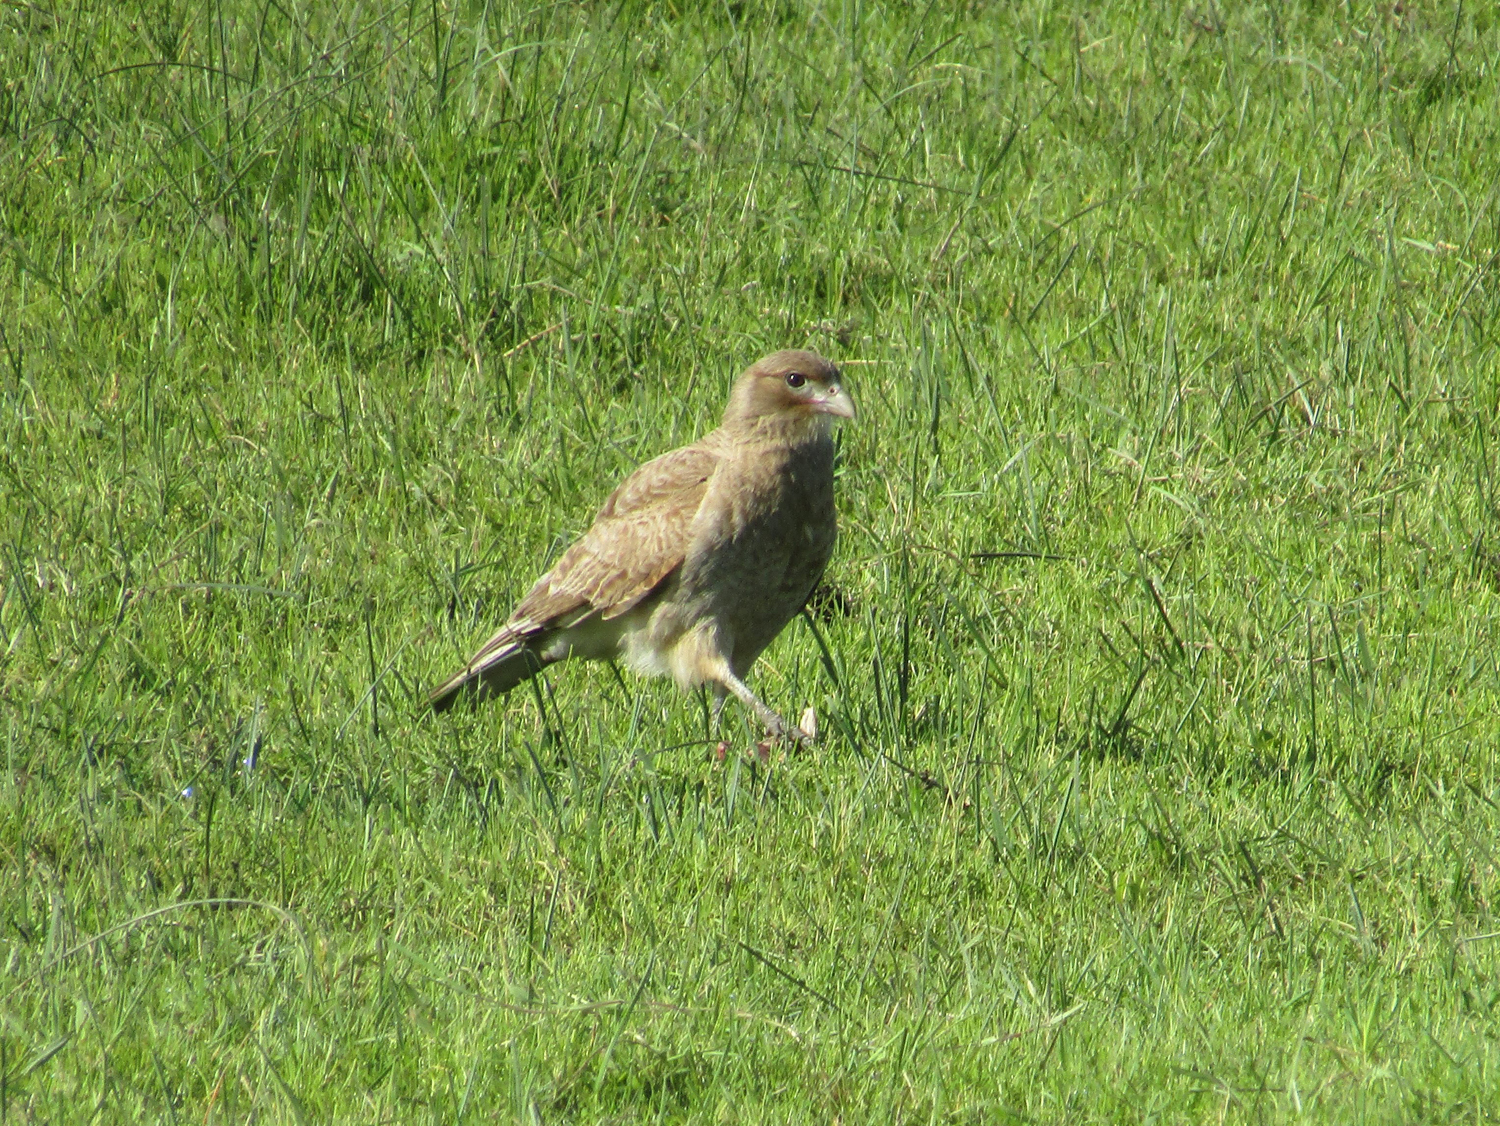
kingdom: Animalia
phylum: Chordata
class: Aves
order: Falconiformes
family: Falconidae
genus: Daptrius
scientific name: Daptrius
